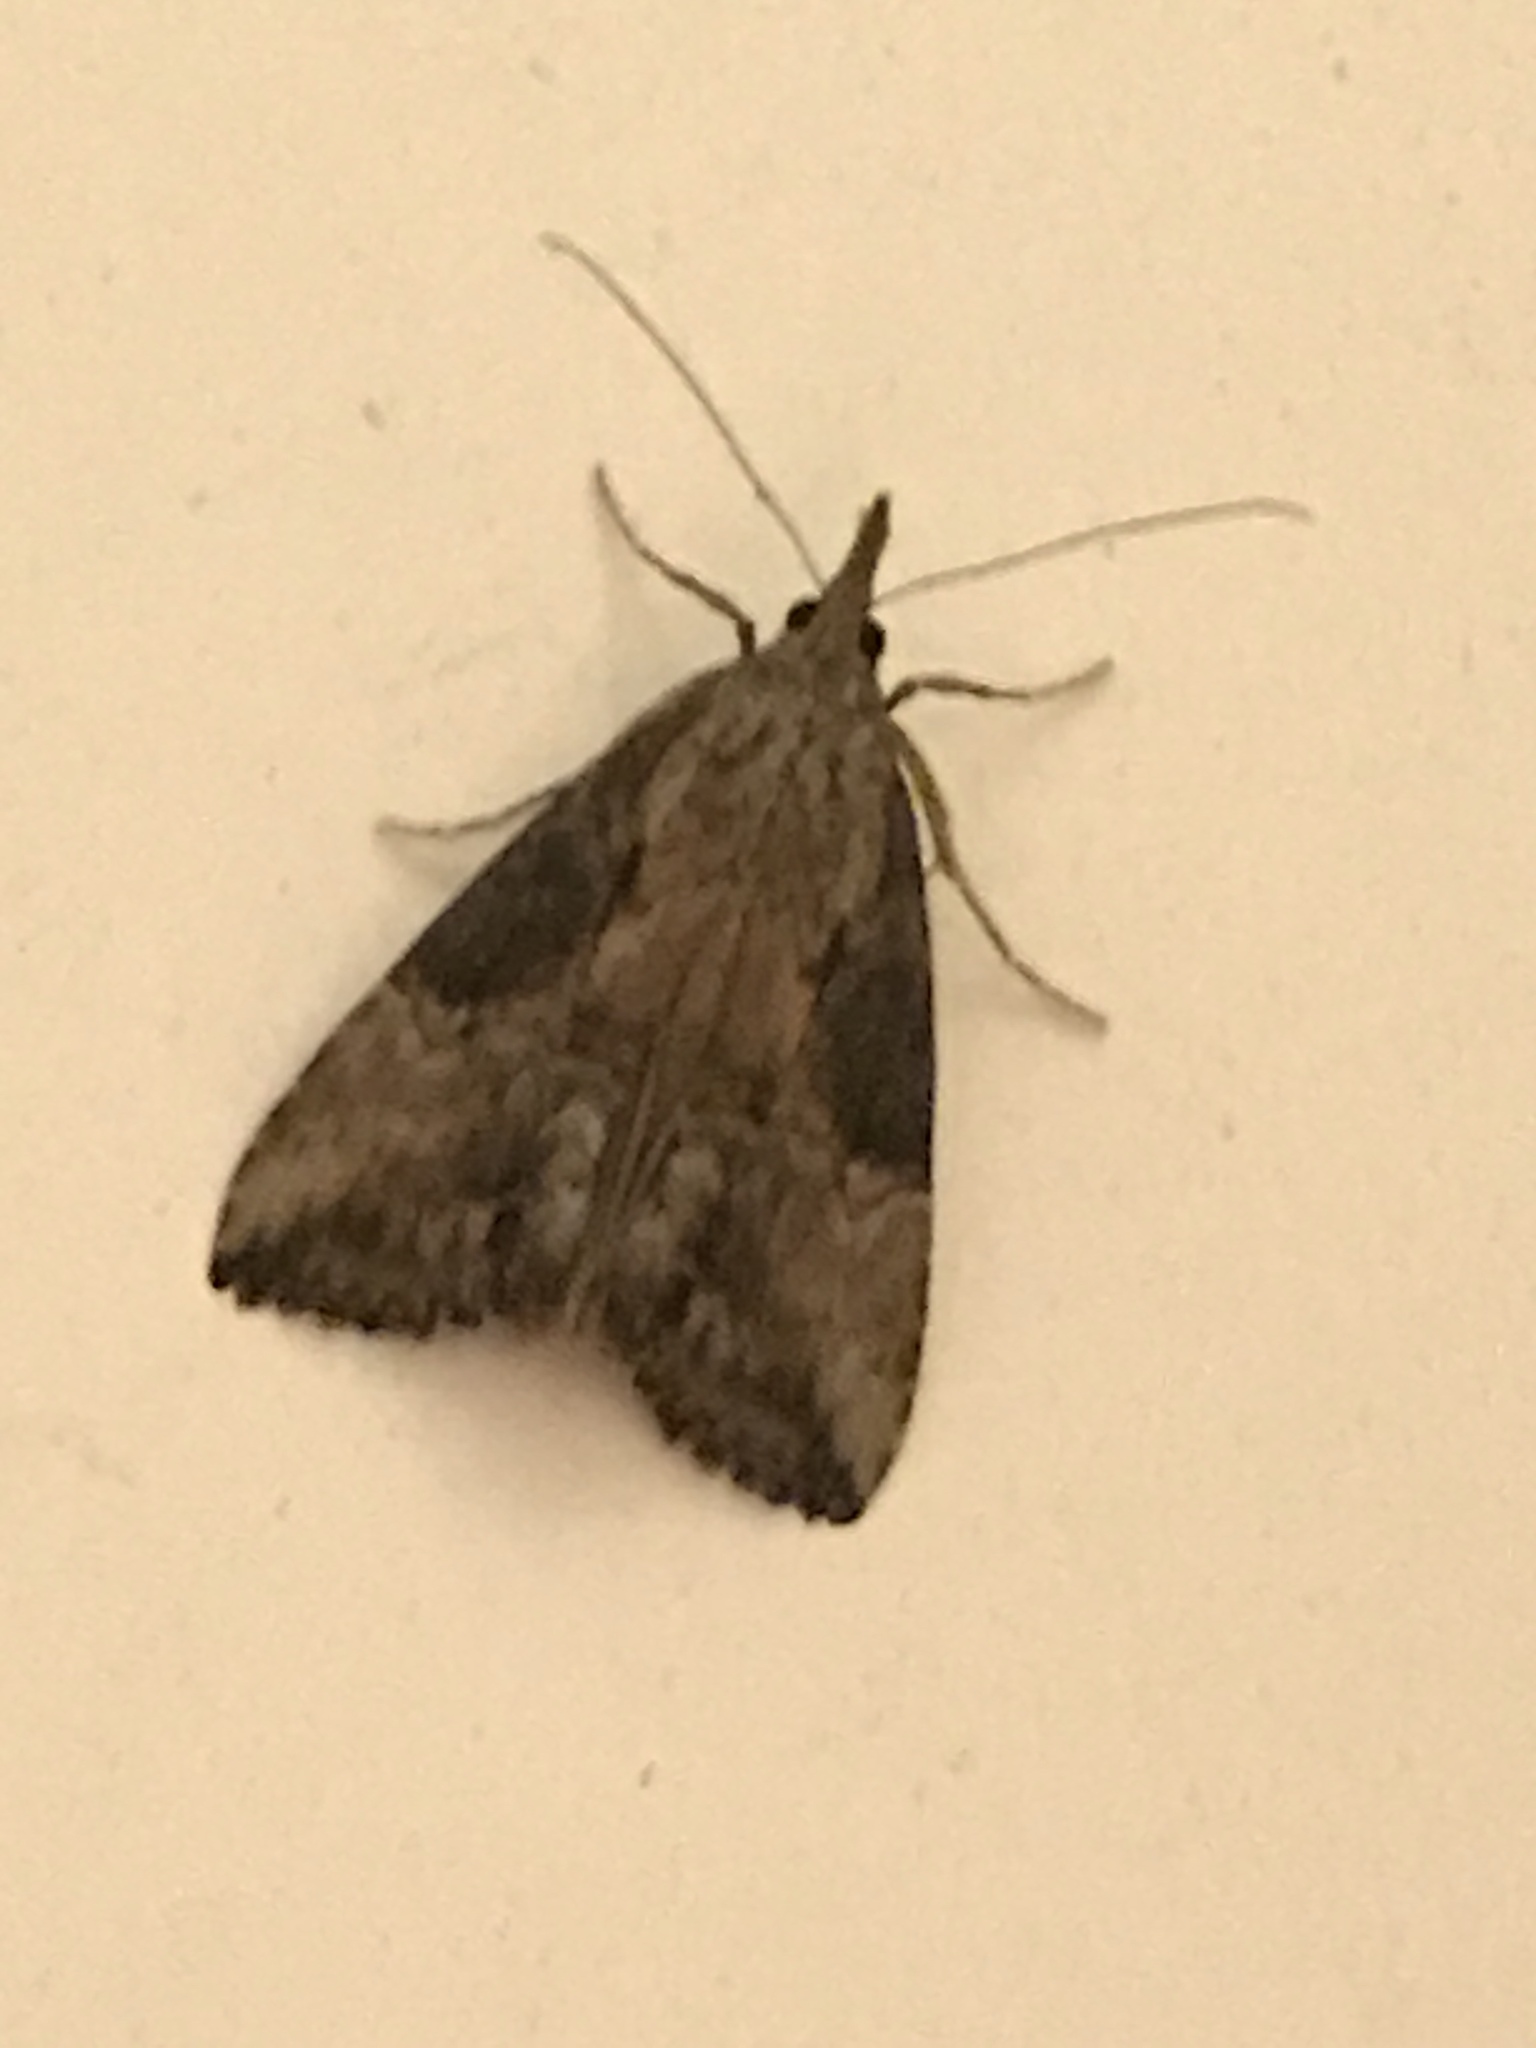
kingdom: Animalia
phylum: Arthropoda
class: Insecta
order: Lepidoptera
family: Erebidae
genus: Hypena
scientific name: Hypena scabra
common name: Green cloverworm
